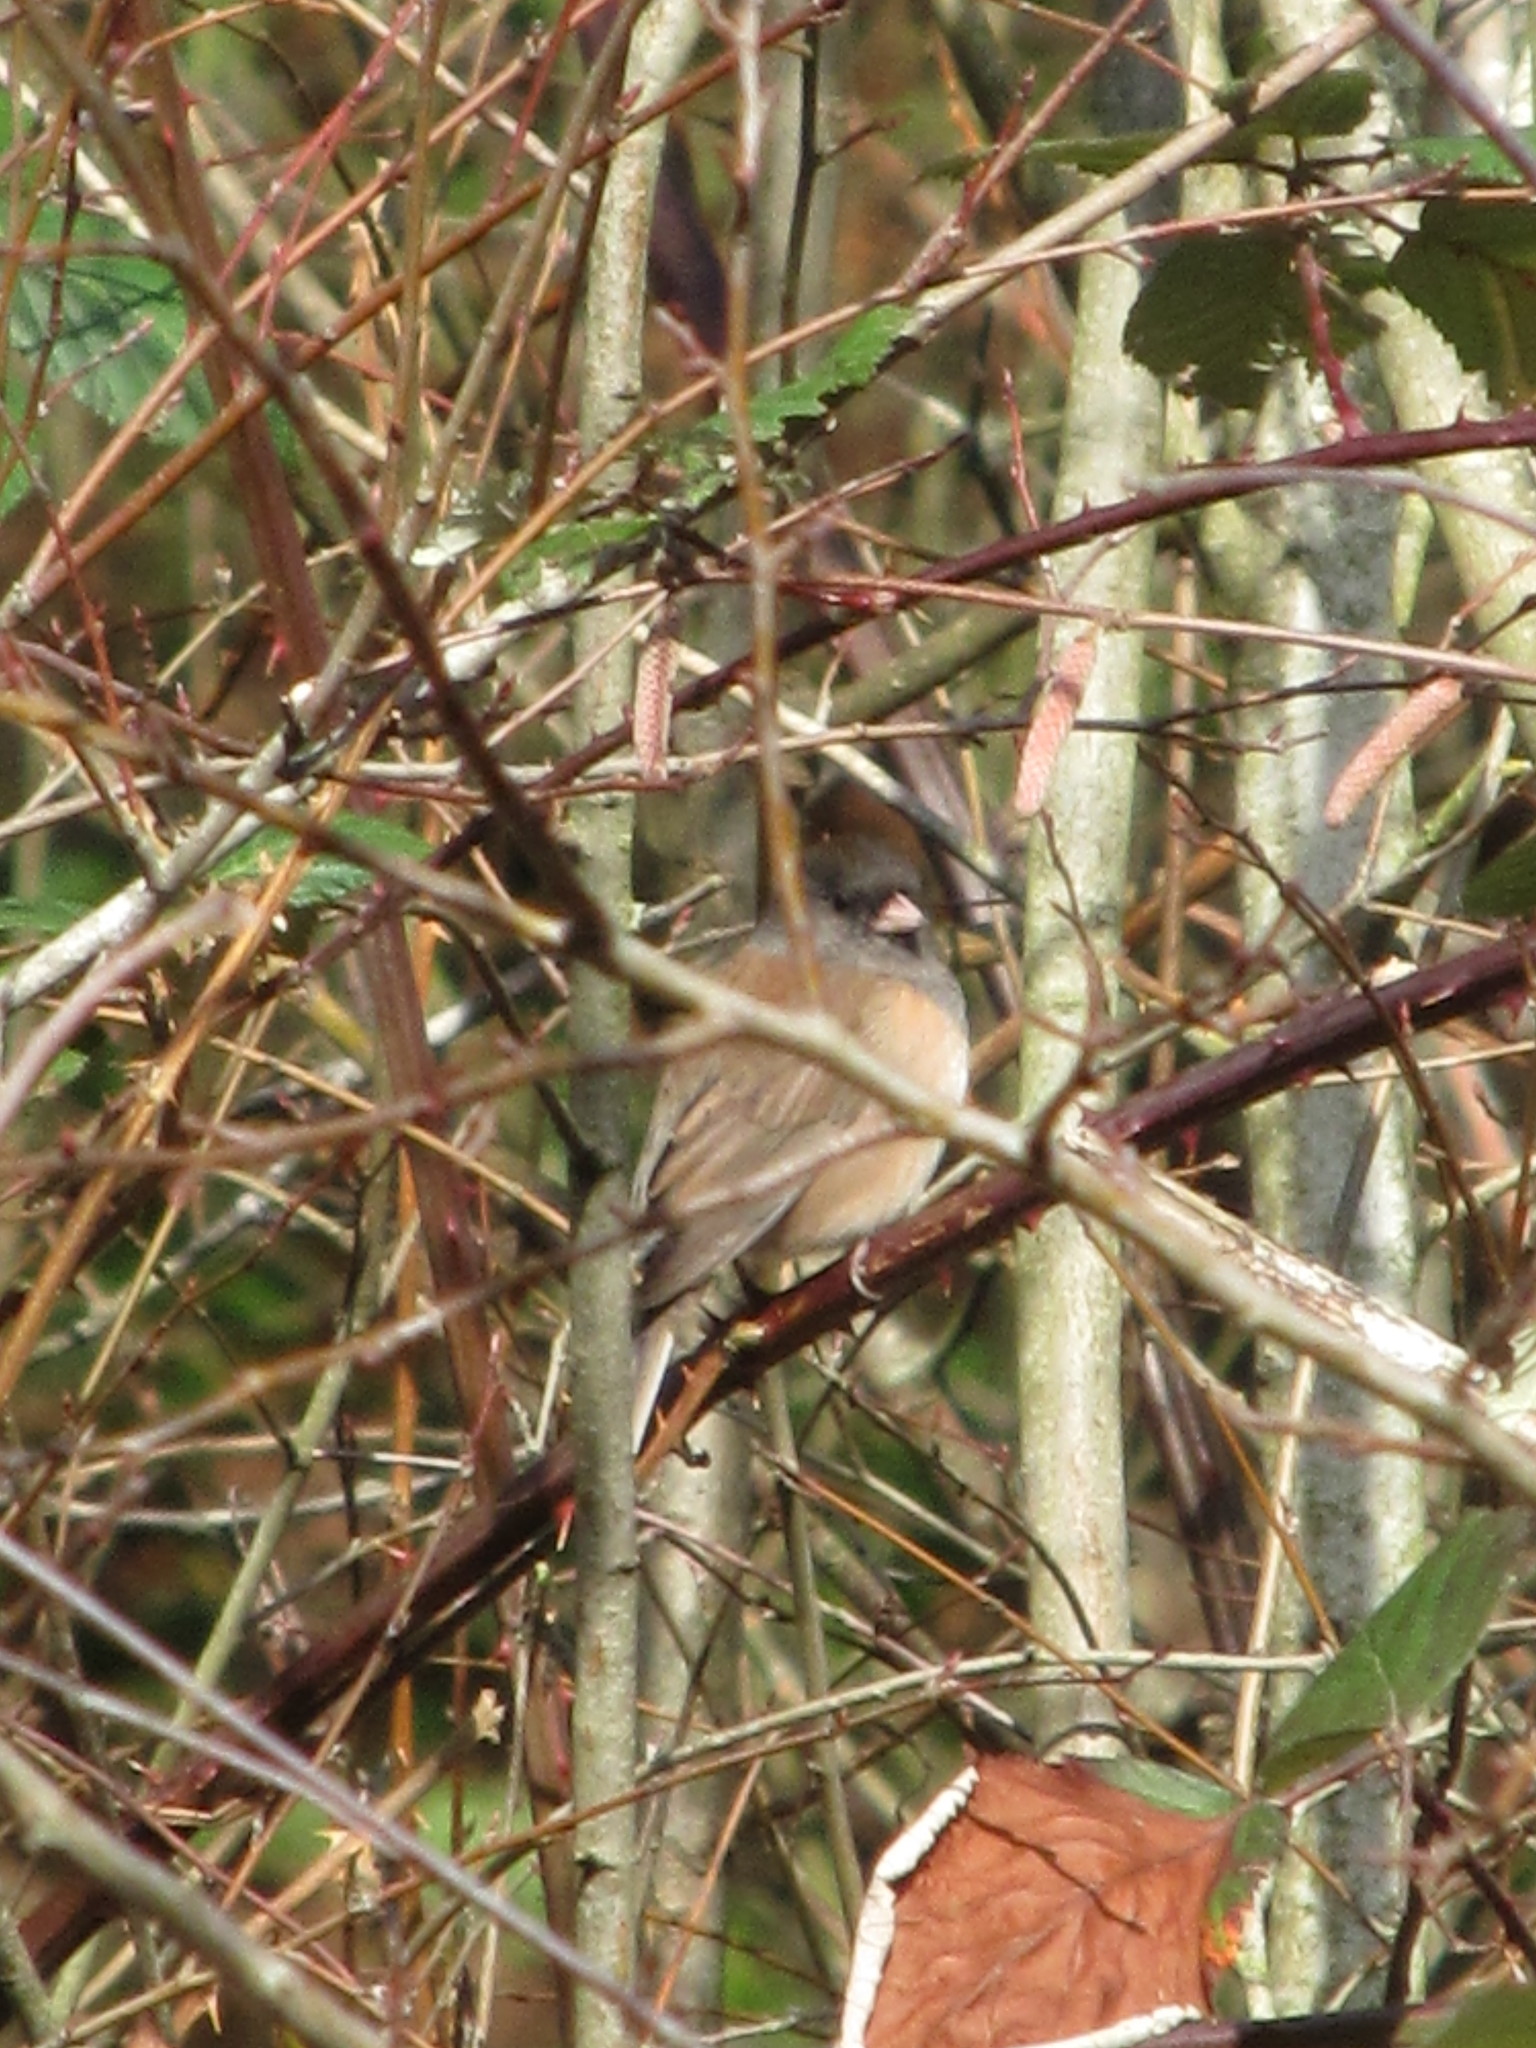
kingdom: Animalia
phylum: Chordata
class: Aves
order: Passeriformes
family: Passerellidae
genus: Junco
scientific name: Junco hyemalis
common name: Dark-eyed junco
